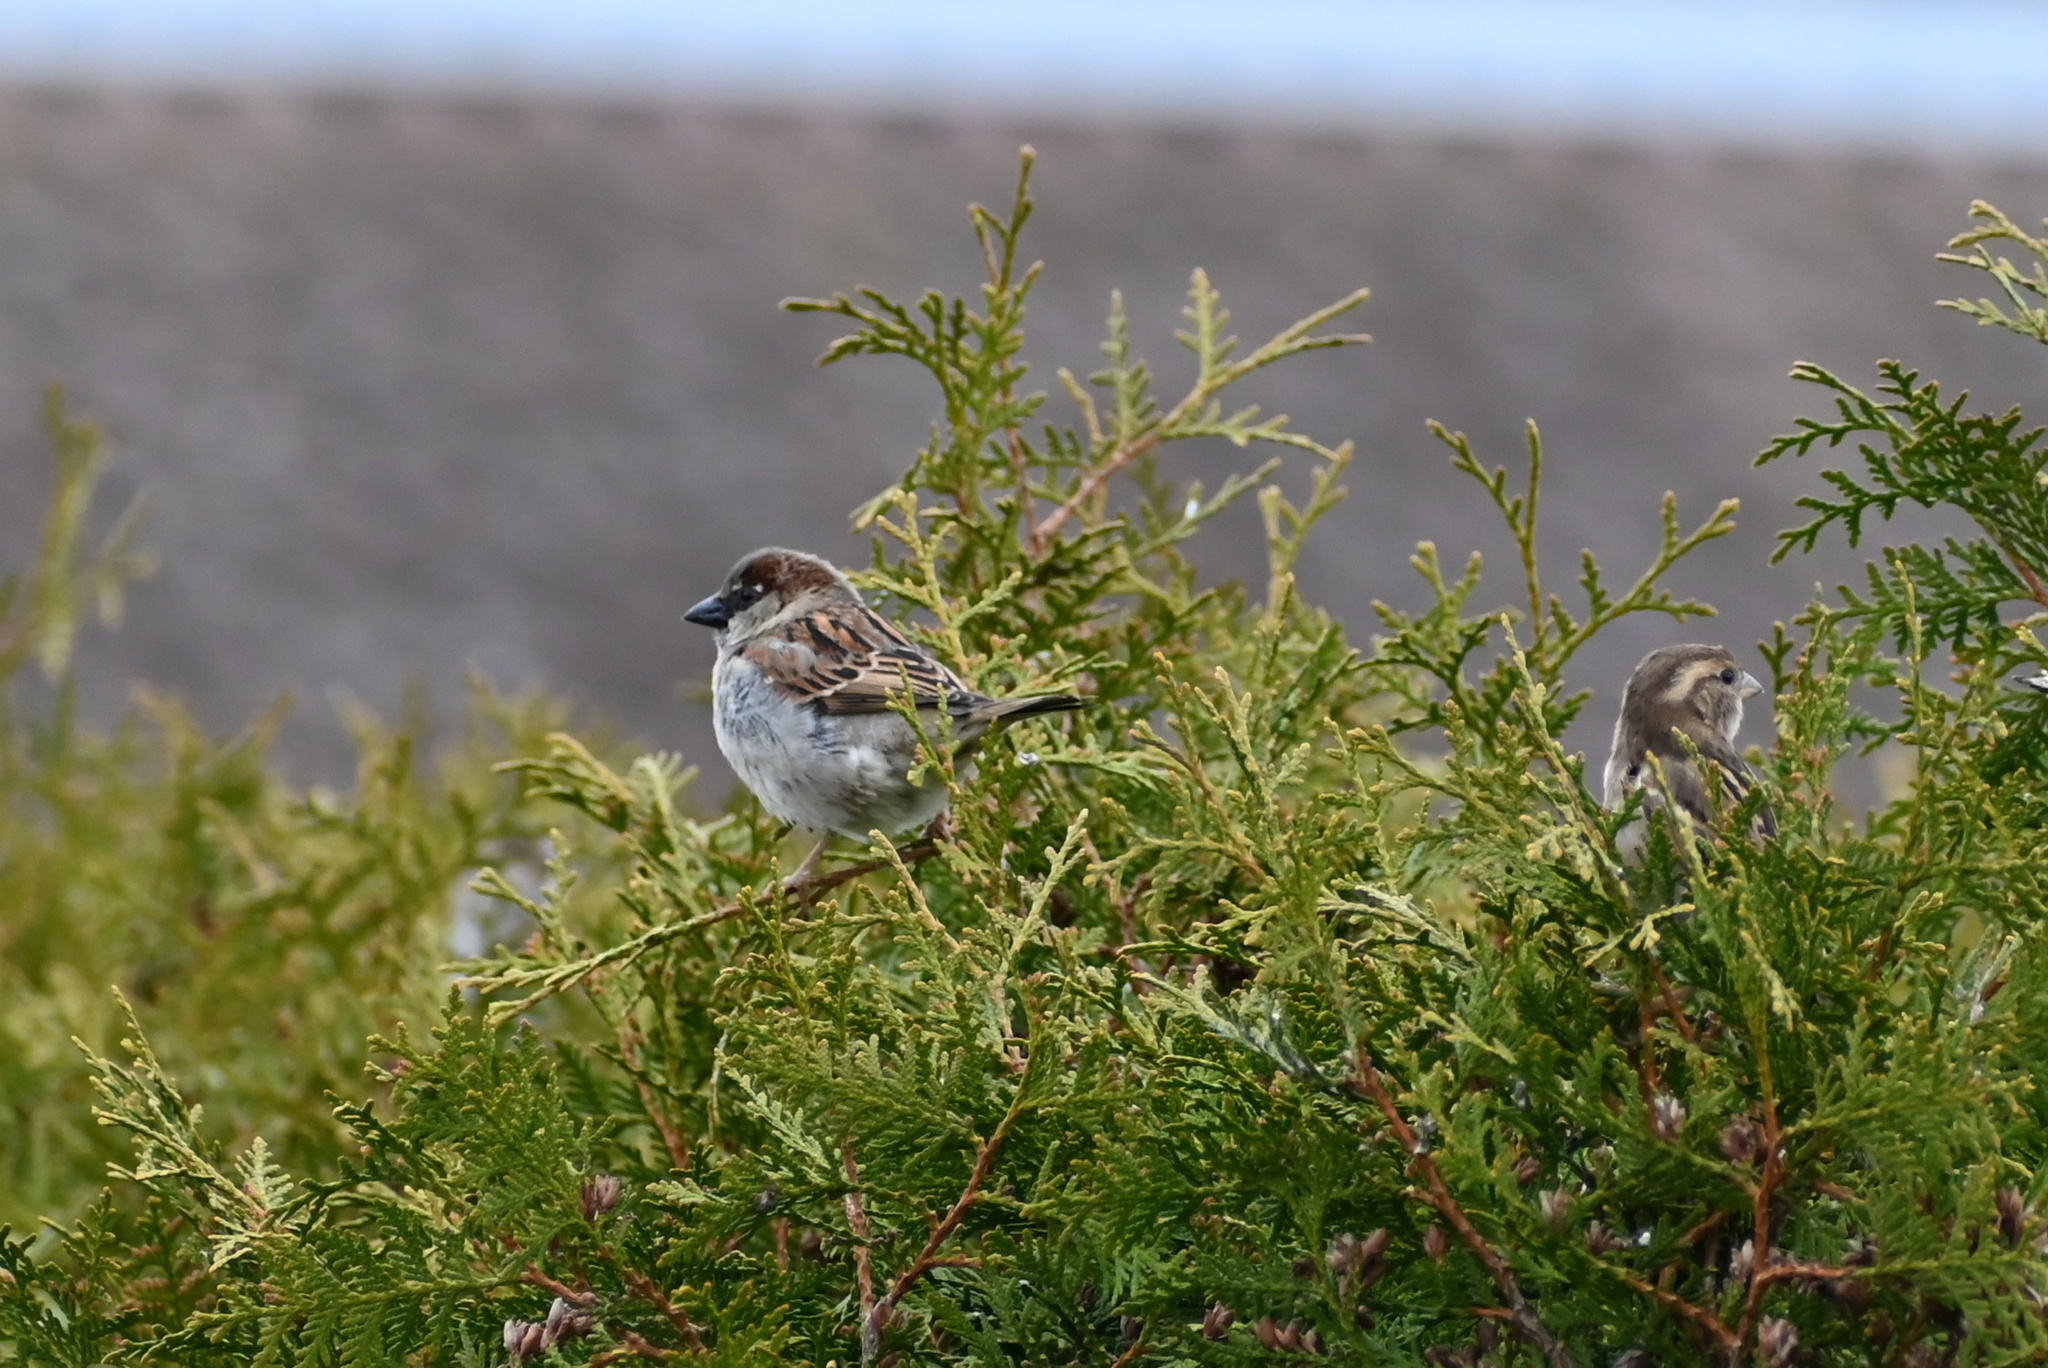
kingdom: Animalia
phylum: Chordata
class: Aves
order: Passeriformes
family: Passeridae
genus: Passer
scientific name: Passer domesticus
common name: House sparrow
